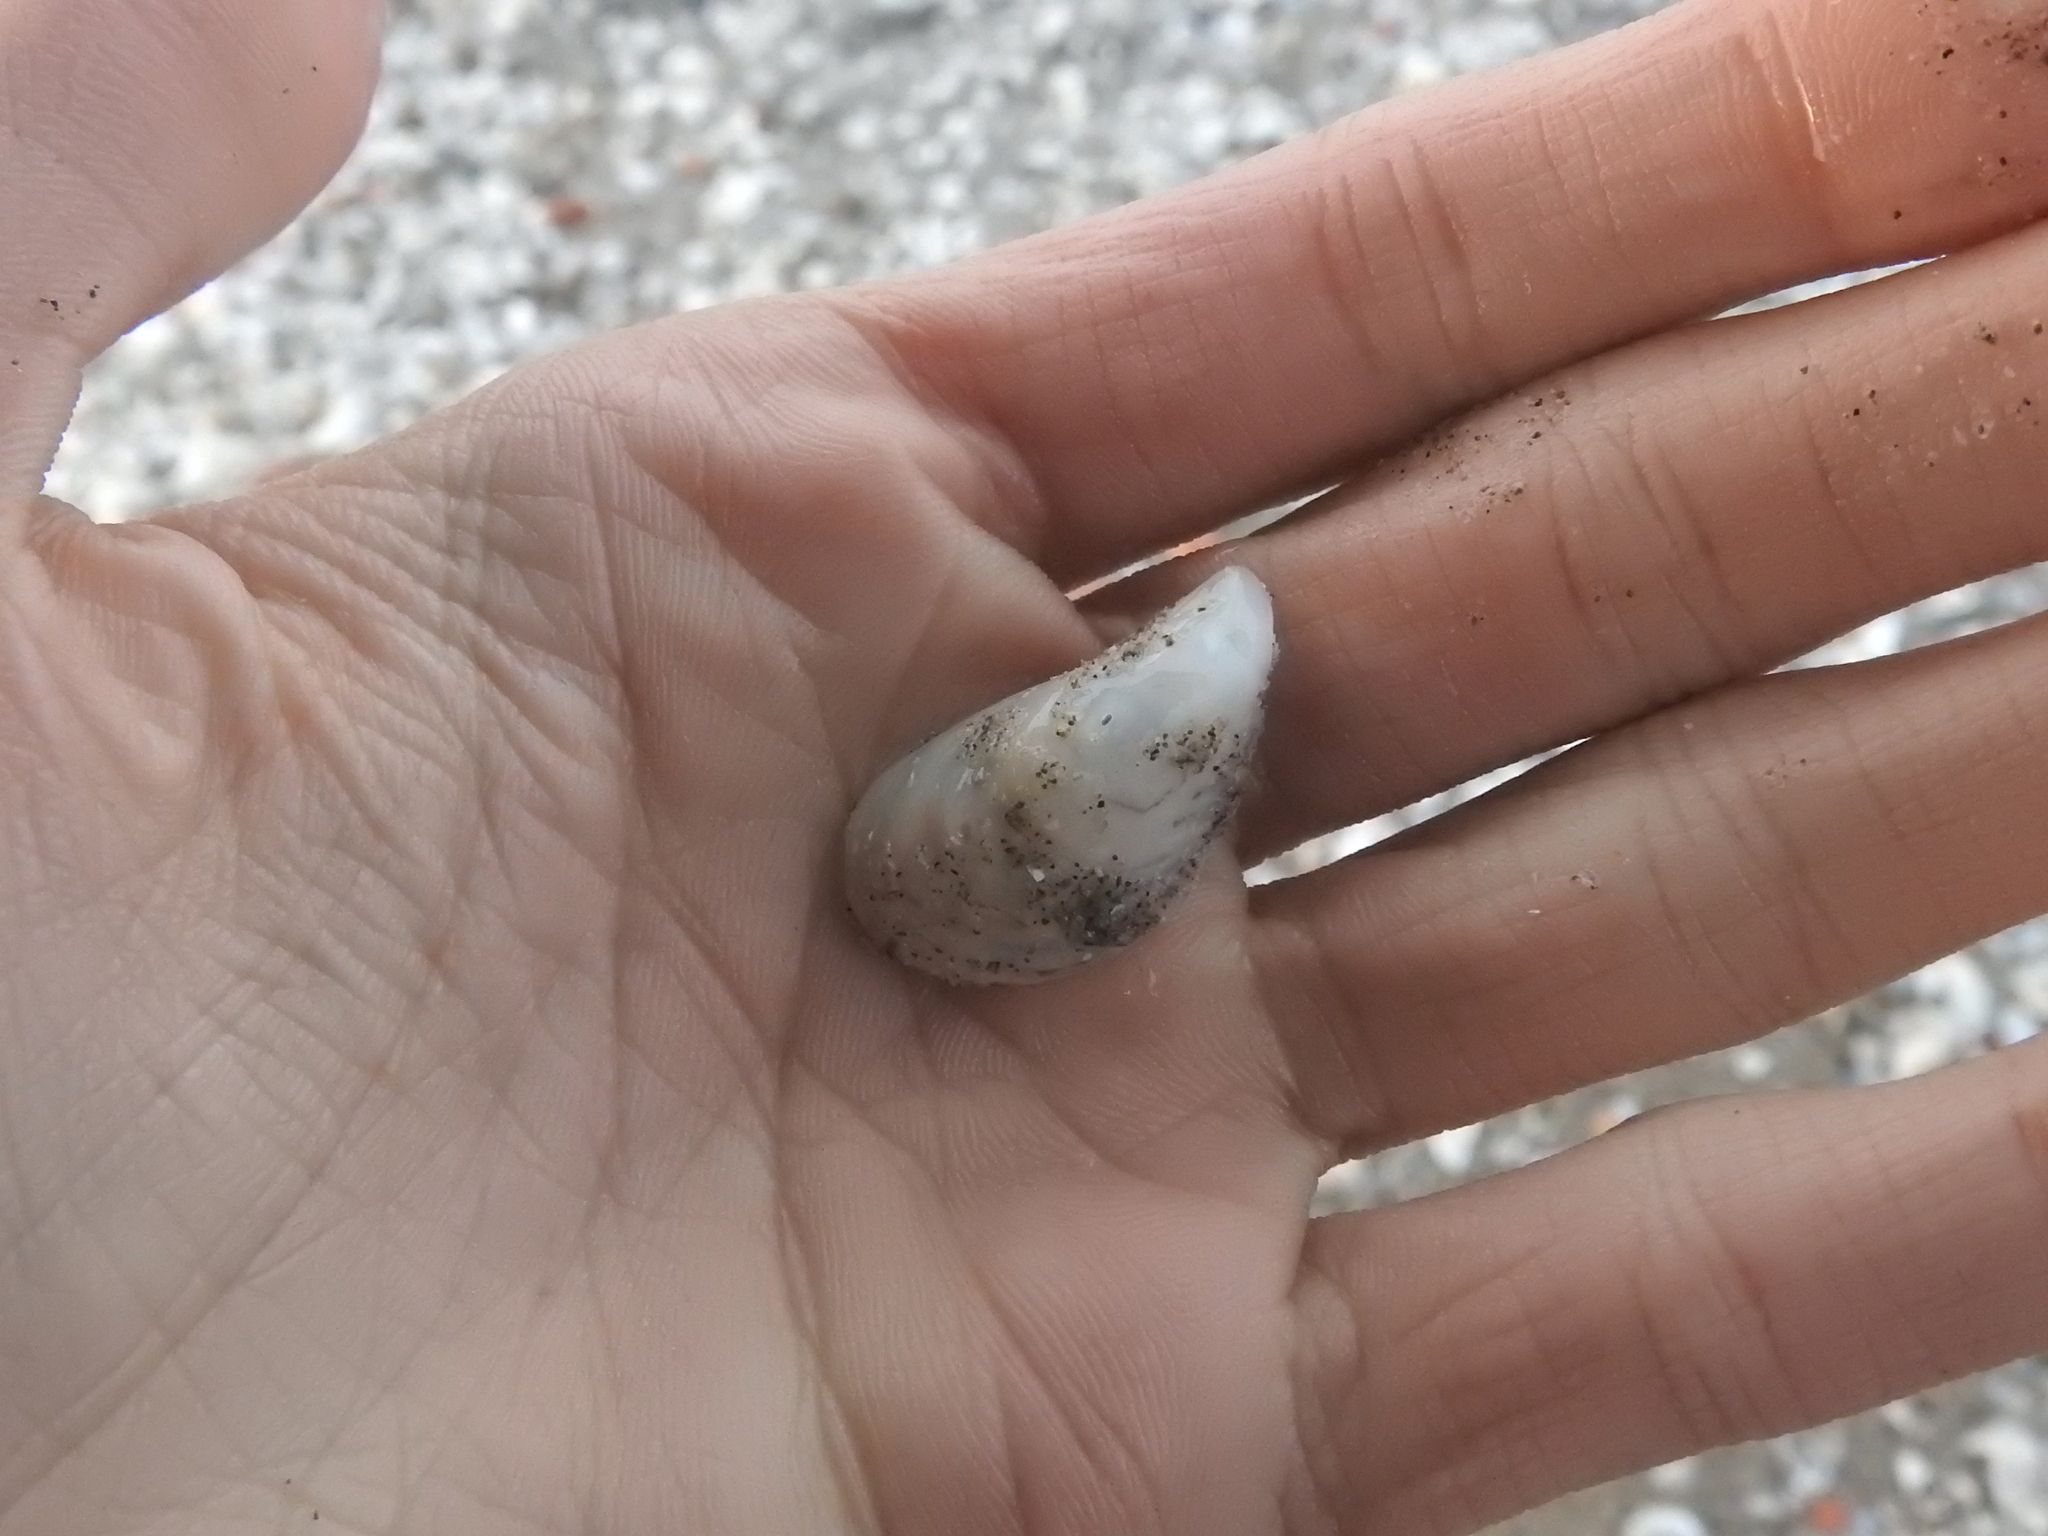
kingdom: Animalia
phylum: Mollusca
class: Bivalvia
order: Myida
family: Dreissenidae
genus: Dreissena
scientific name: Dreissena bugensis
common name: Quagga mussel
